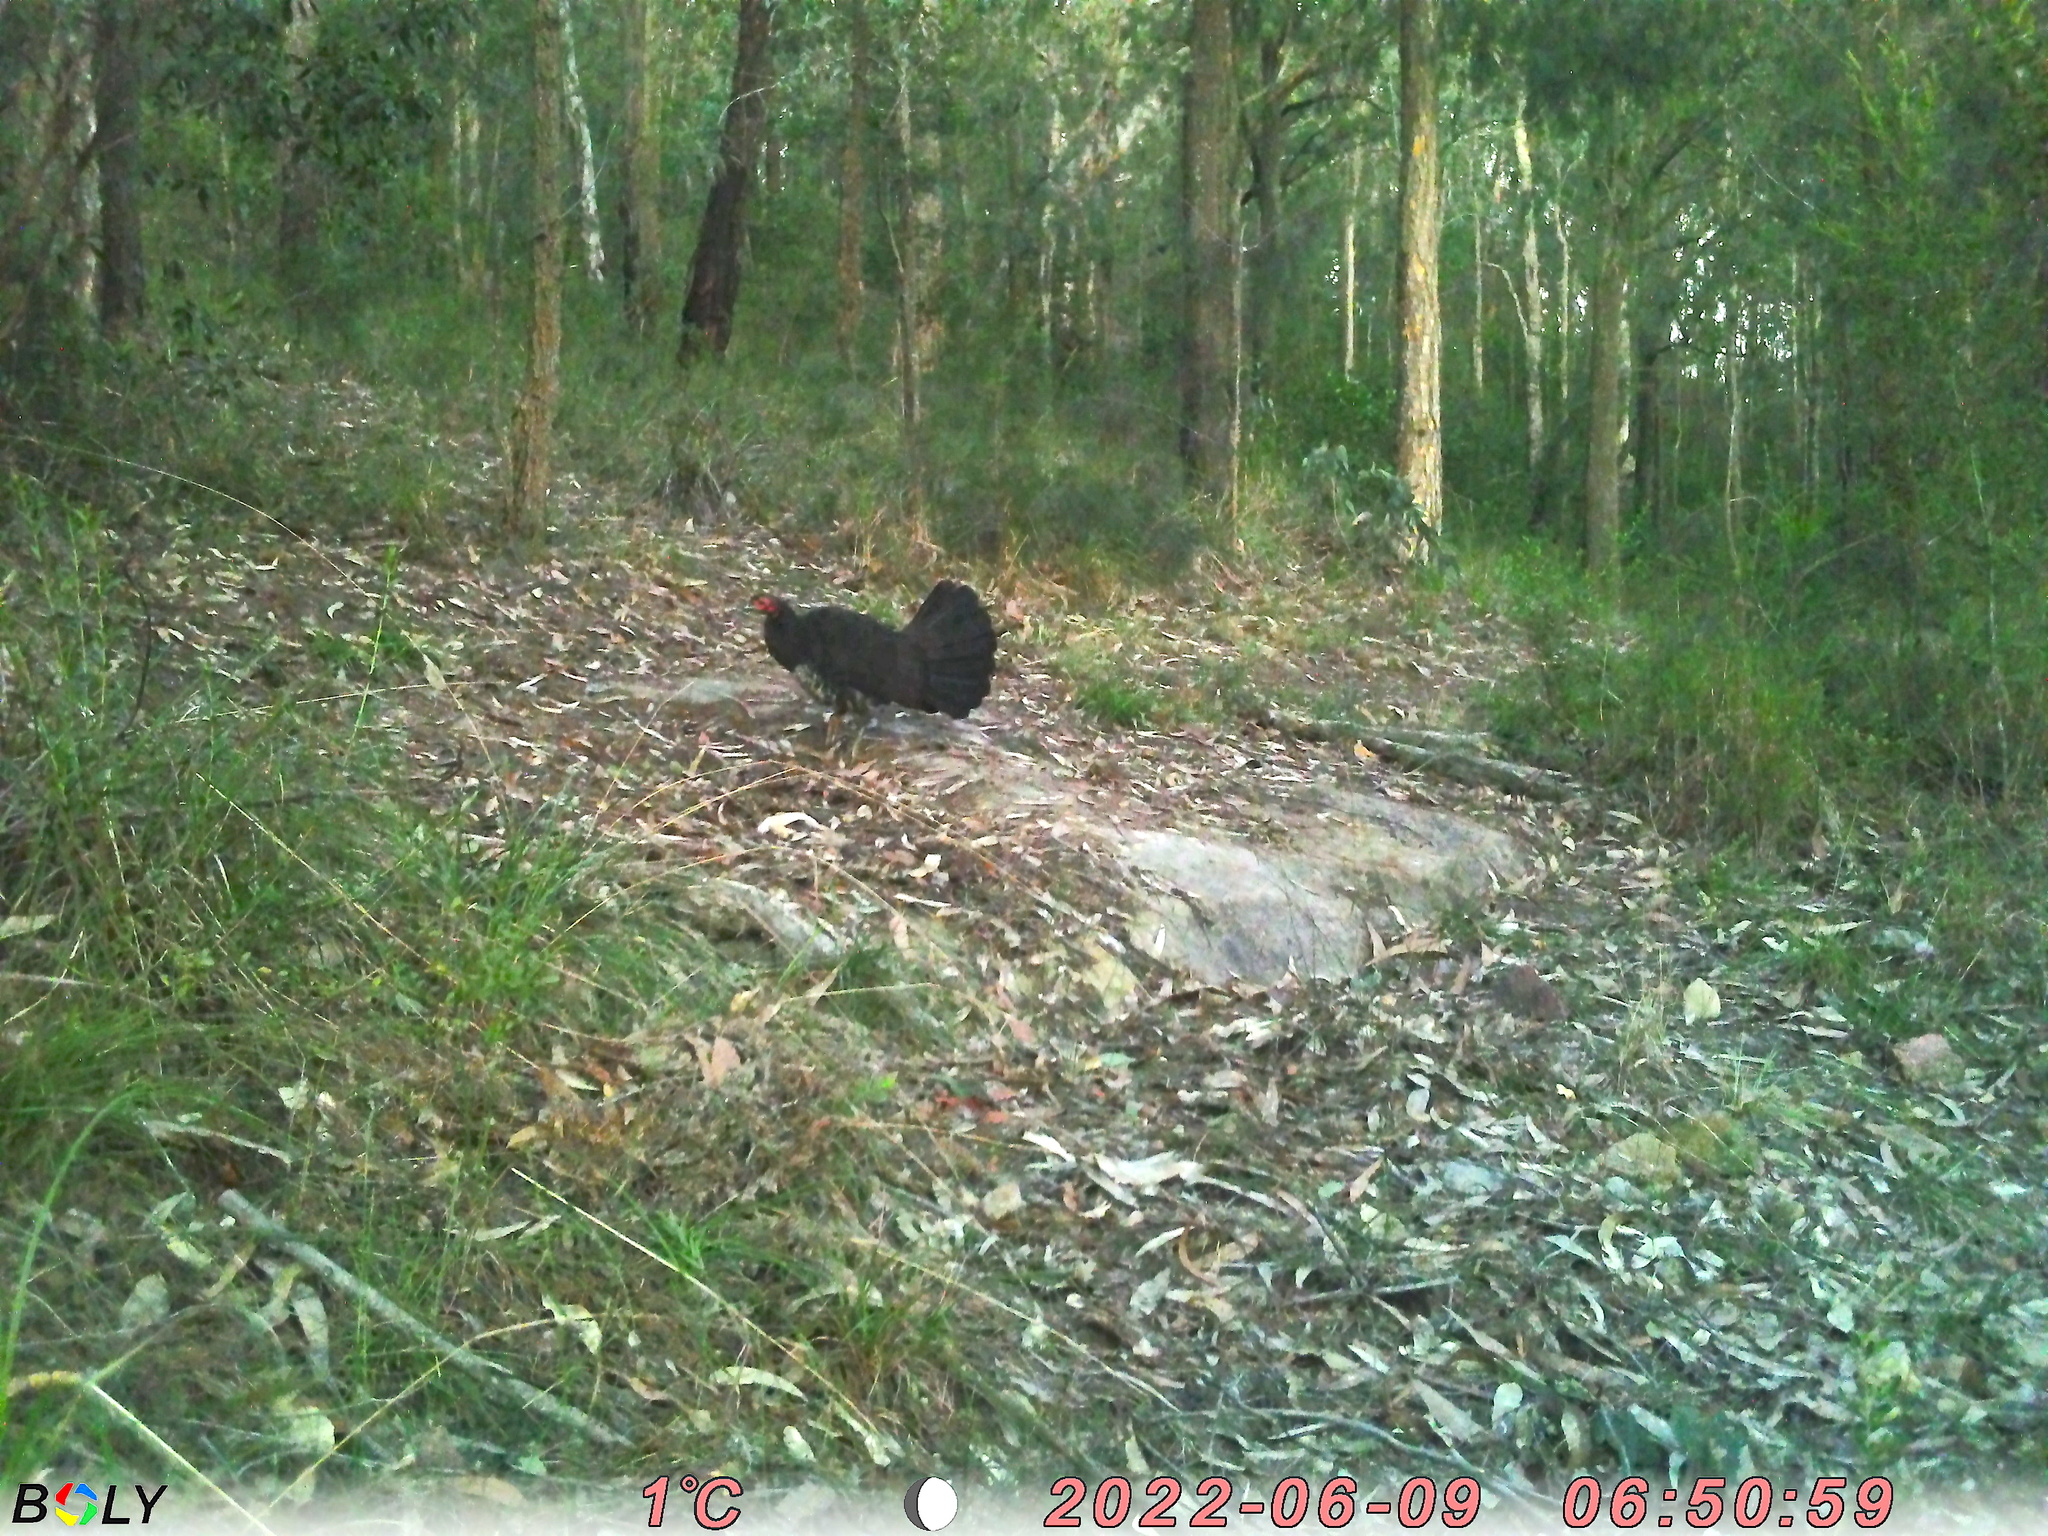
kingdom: Animalia
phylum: Chordata
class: Aves
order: Galliformes
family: Megapodiidae
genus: Alectura
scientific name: Alectura lathami
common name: Australian brushturkey
